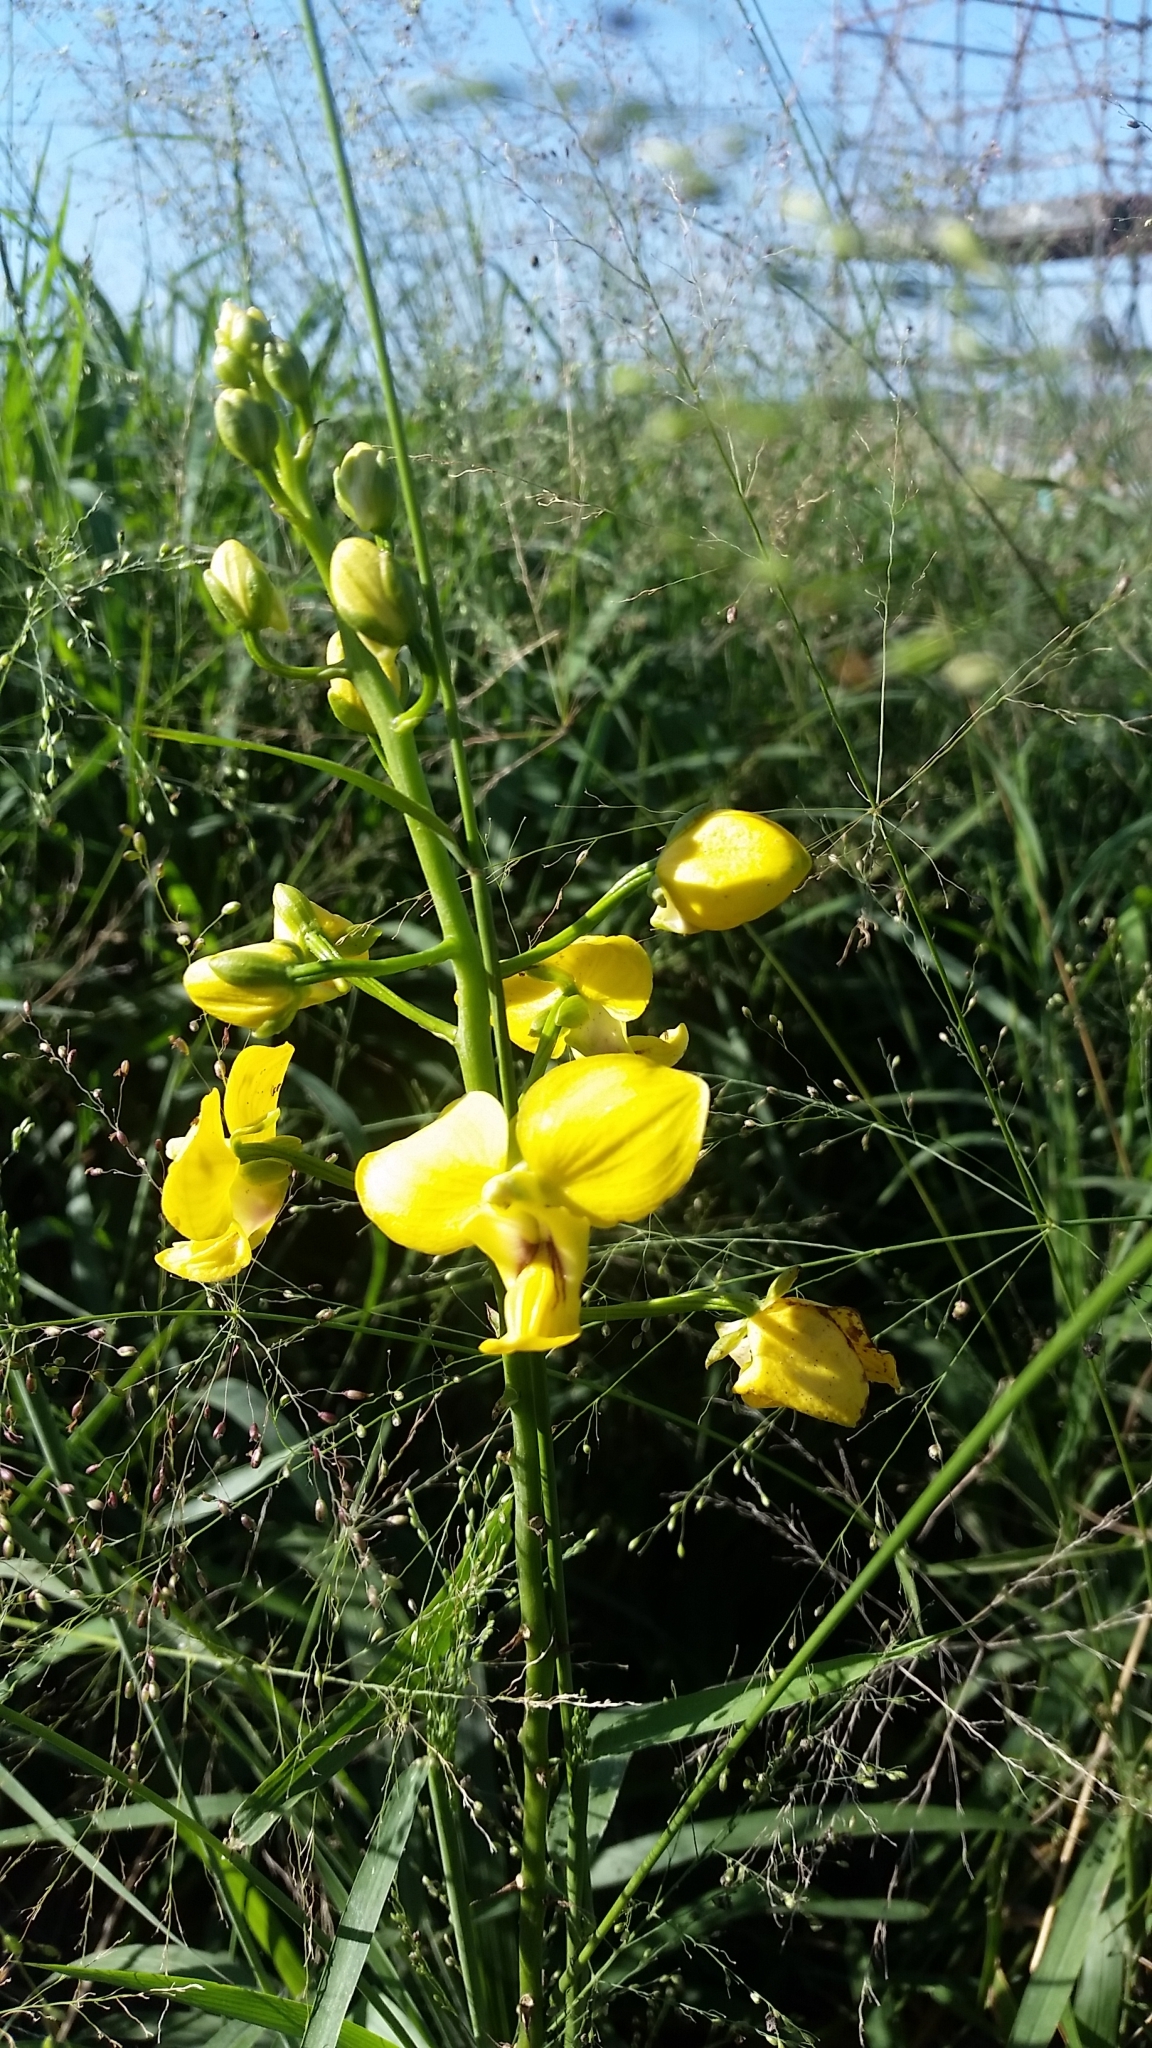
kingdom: Plantae
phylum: Tracheophyta
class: Liliopsida
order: Asparagales
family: Orchidaceae
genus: Eulophia
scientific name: Eulophia speciosa
